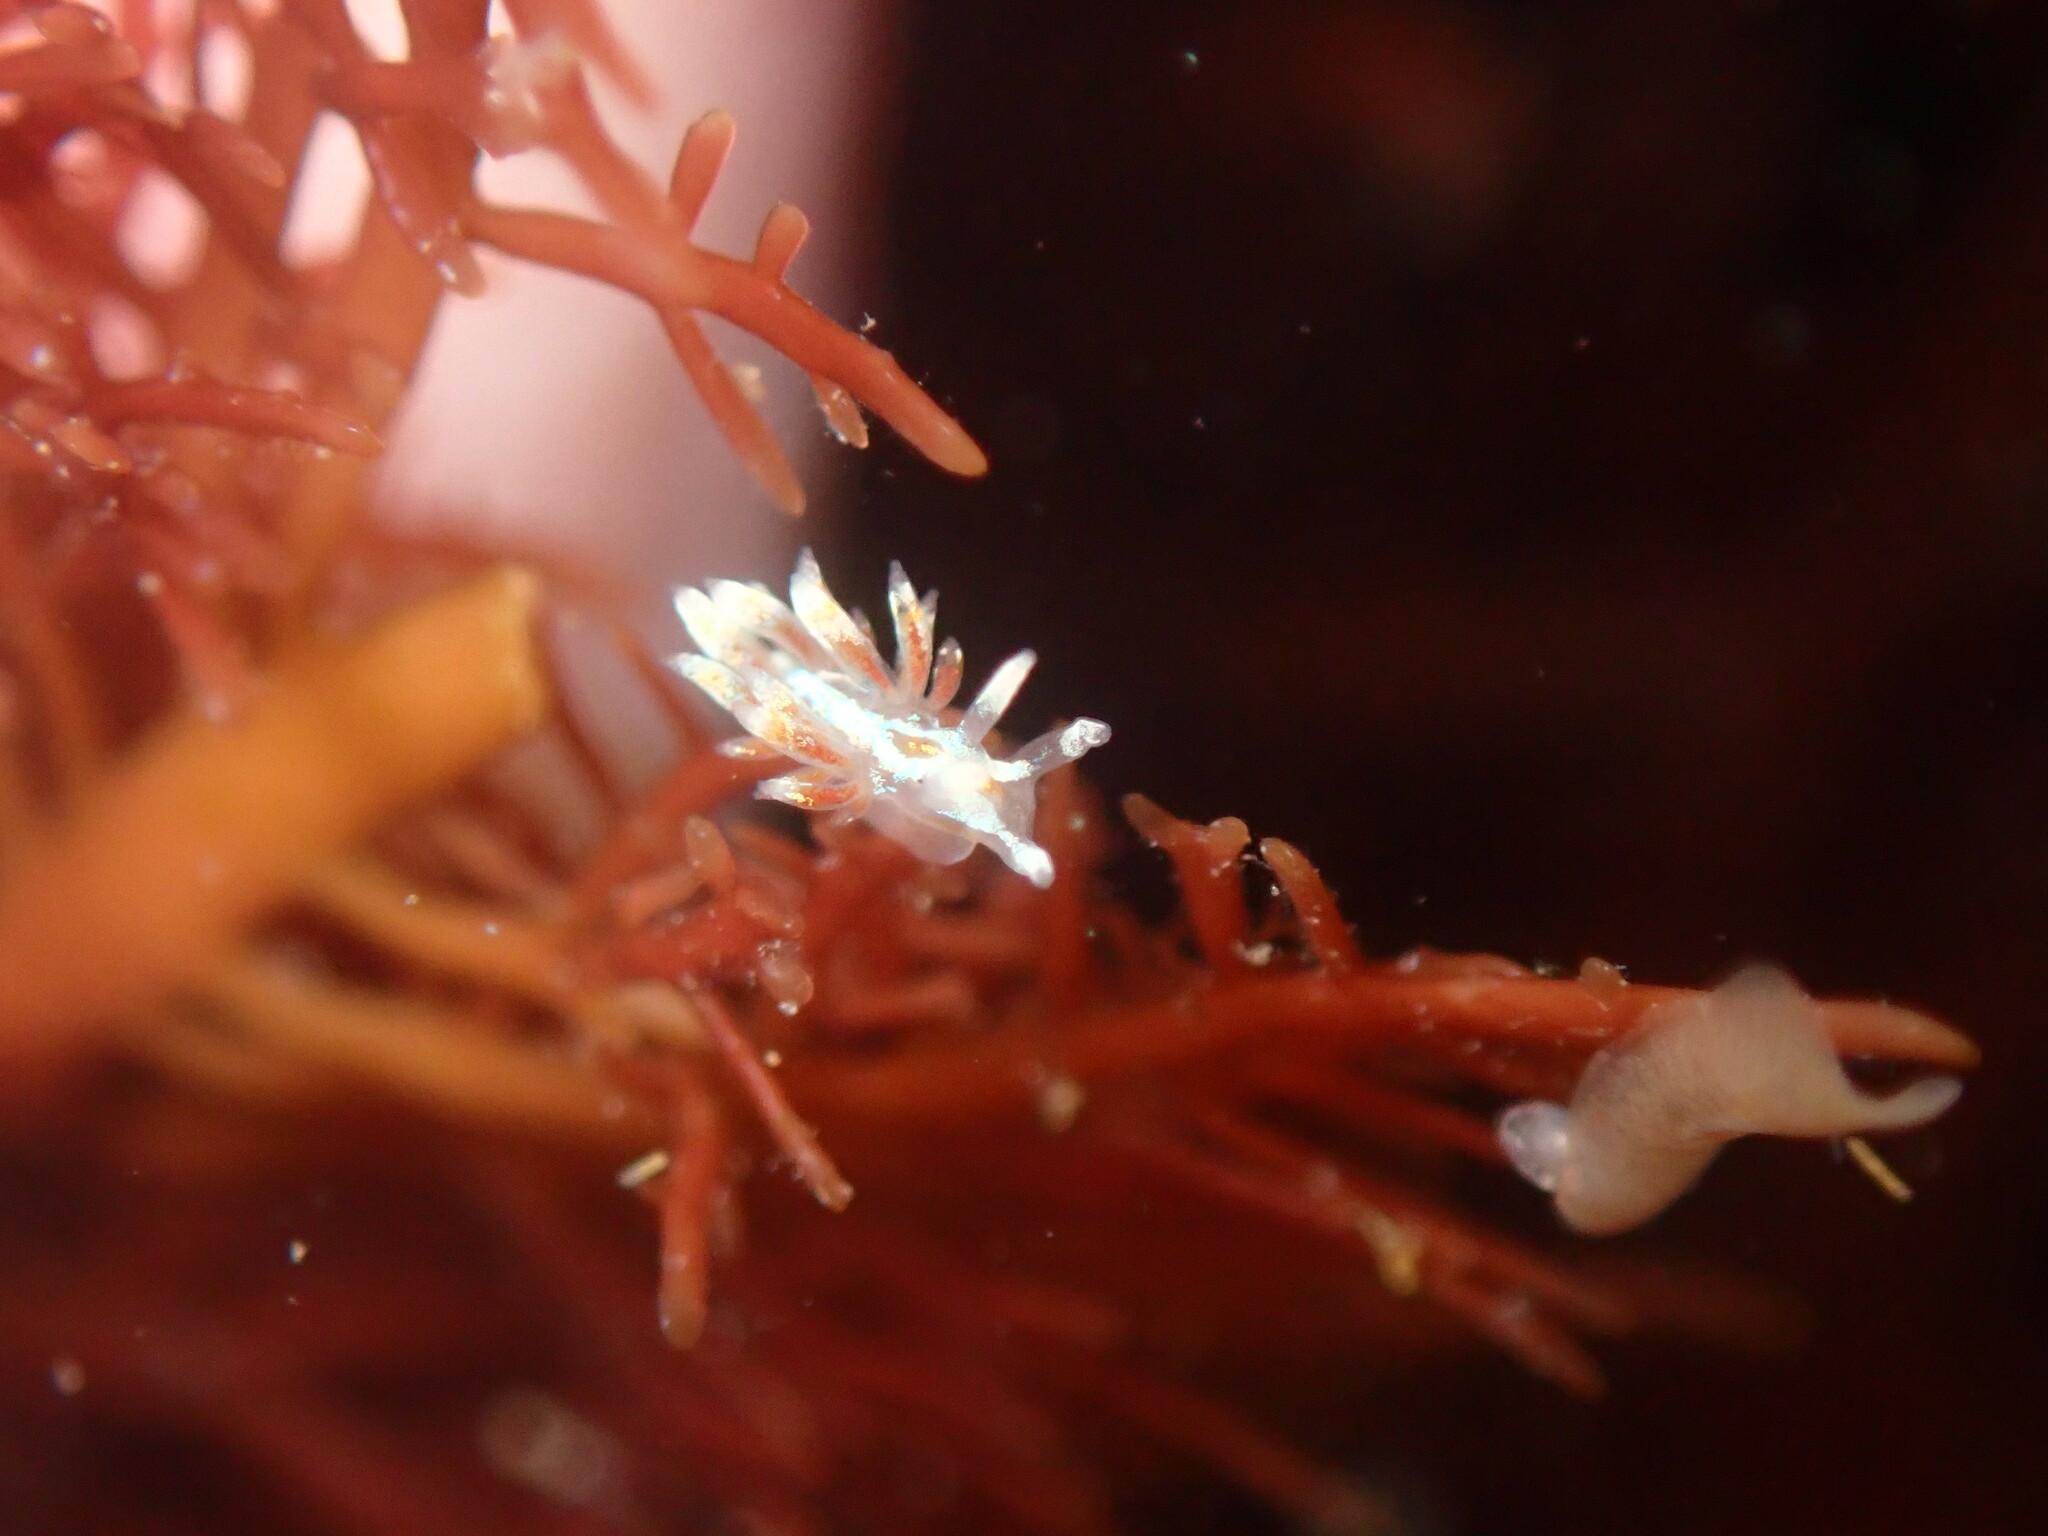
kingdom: Animalia
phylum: Mollusca
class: Gastropoda
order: Nudibranchia
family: Myrrhinidae
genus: Hermissenda
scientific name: Hermissenda opalescens
